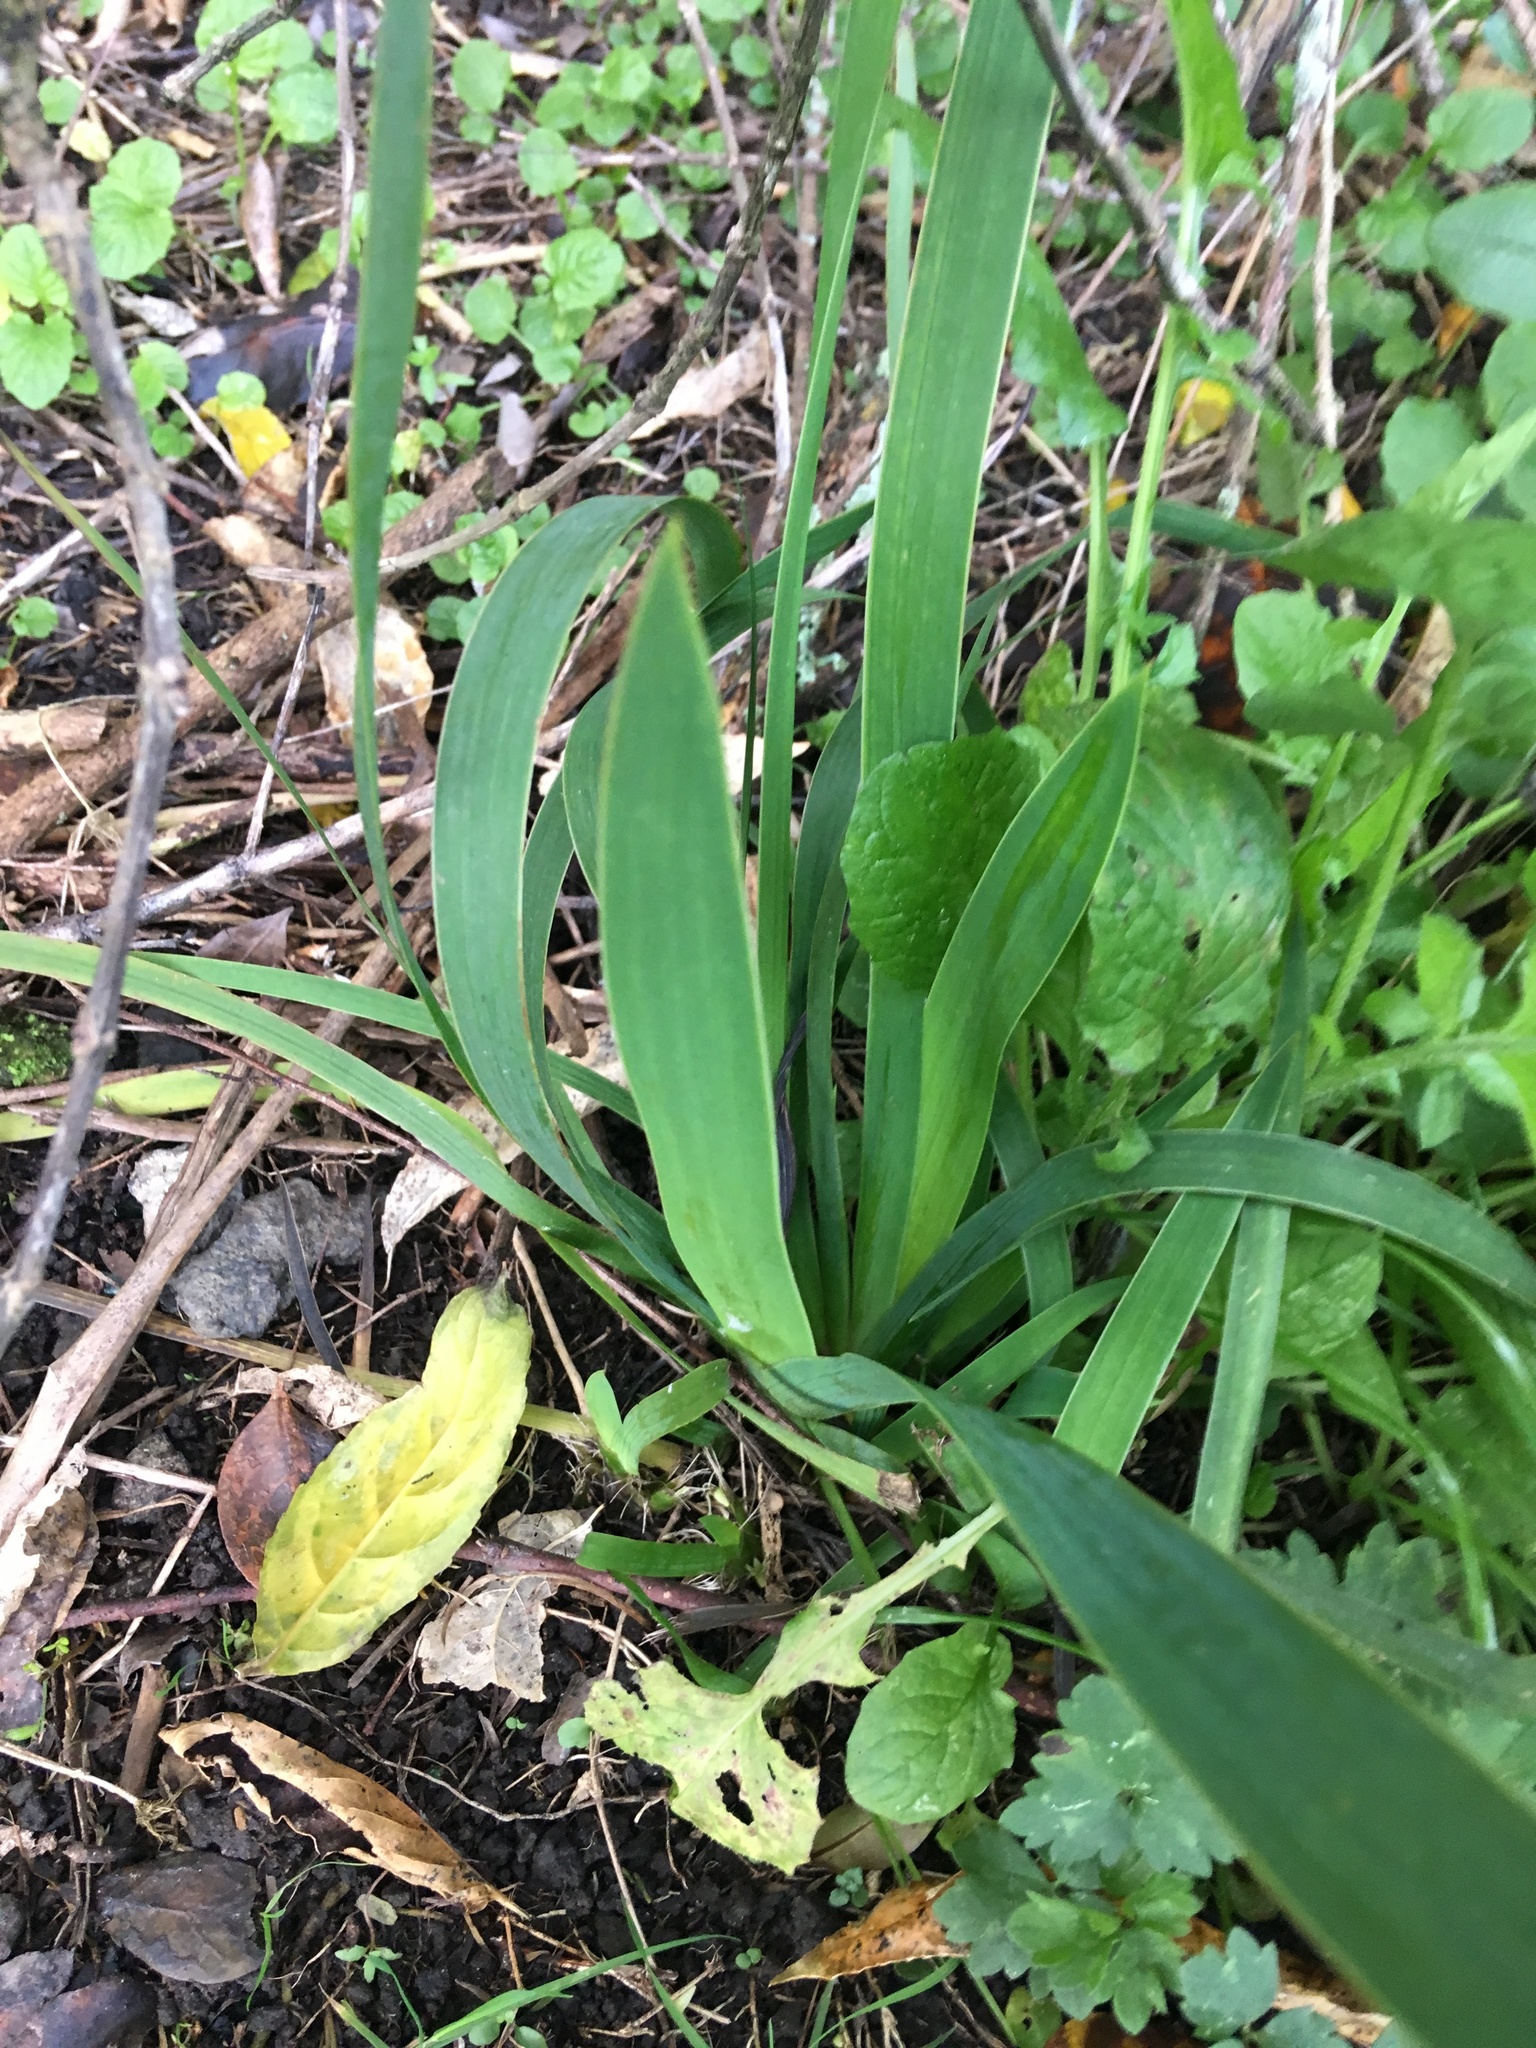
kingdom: Plantae
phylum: Tracheophyta
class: Liliopsida
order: Asparagales
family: Iridaceae
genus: Aristea
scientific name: Aristea ecklonii
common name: Blue corn-lily
